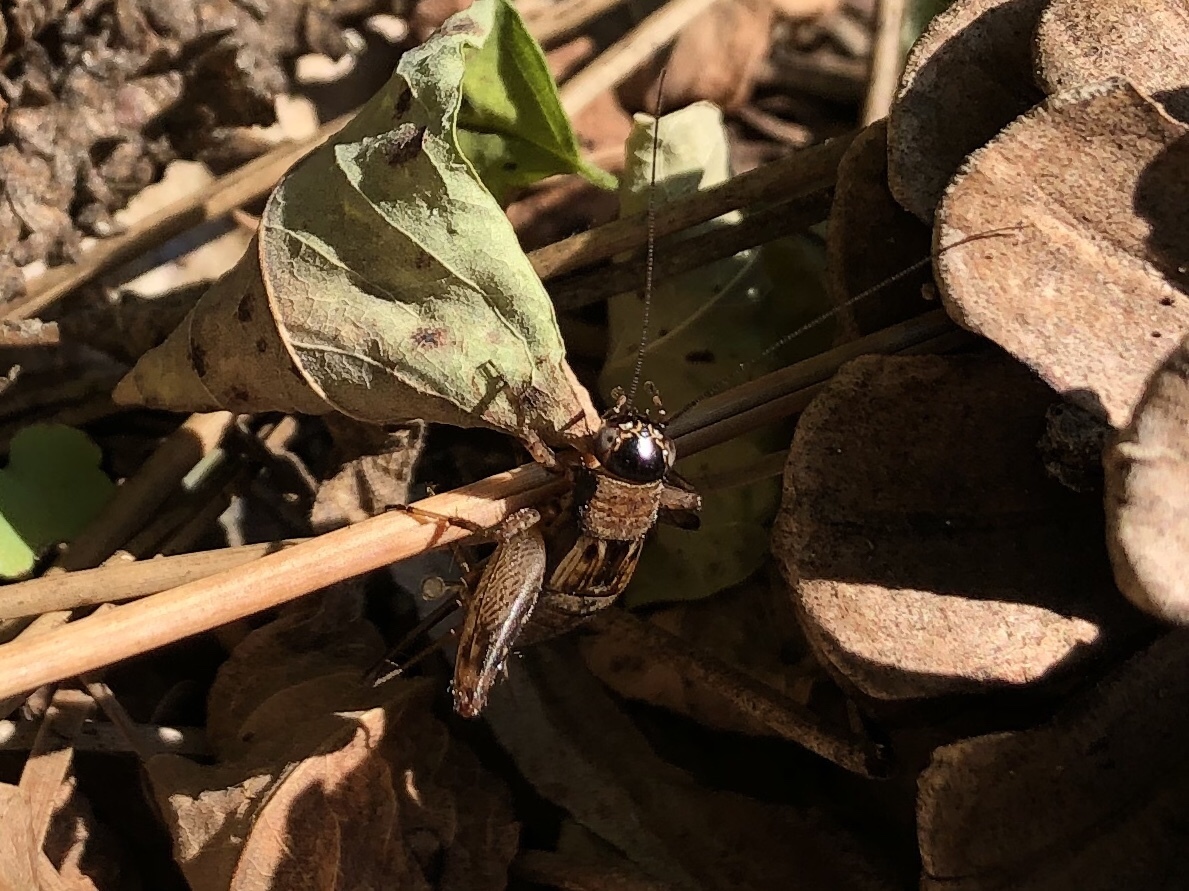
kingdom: Animalia
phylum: Arthropoda
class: Insecta
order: Orthoptera
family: Trigonidiidae
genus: Nemobius
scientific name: Nemobius sylvestris
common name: Wood-cricket
